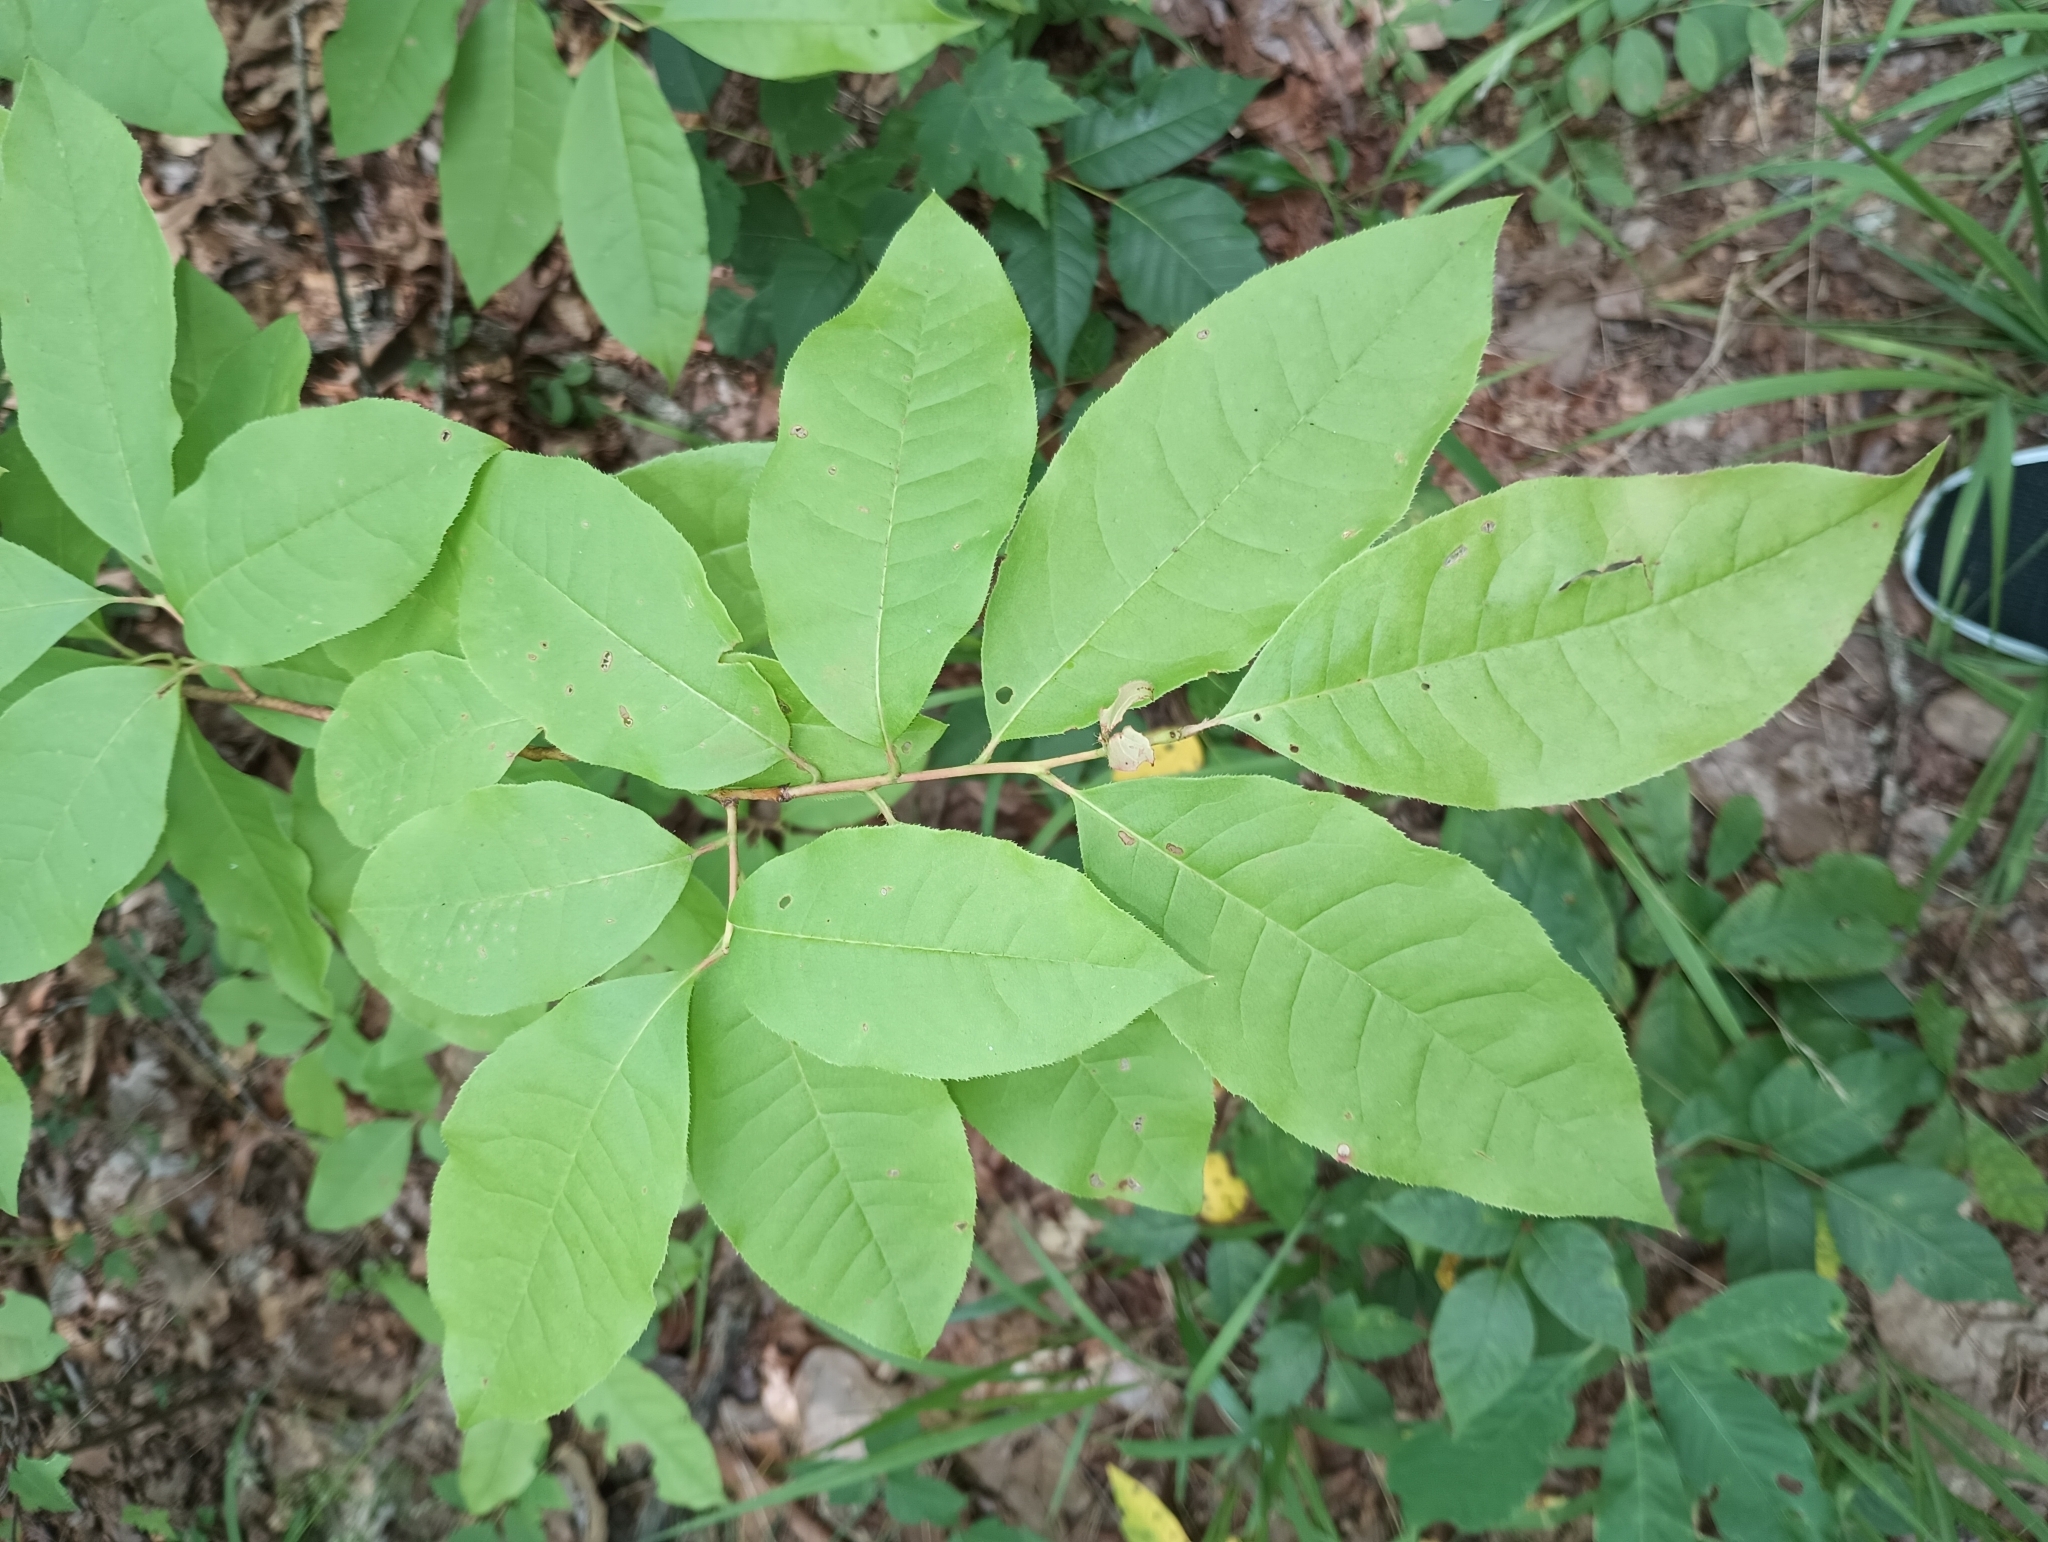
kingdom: Plantae
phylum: Tracheophyta
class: Magnoliopsida
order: Ericales
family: Ericaceae
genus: Oxydendrum
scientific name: Oxydendrum arboreum
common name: Sourwood
